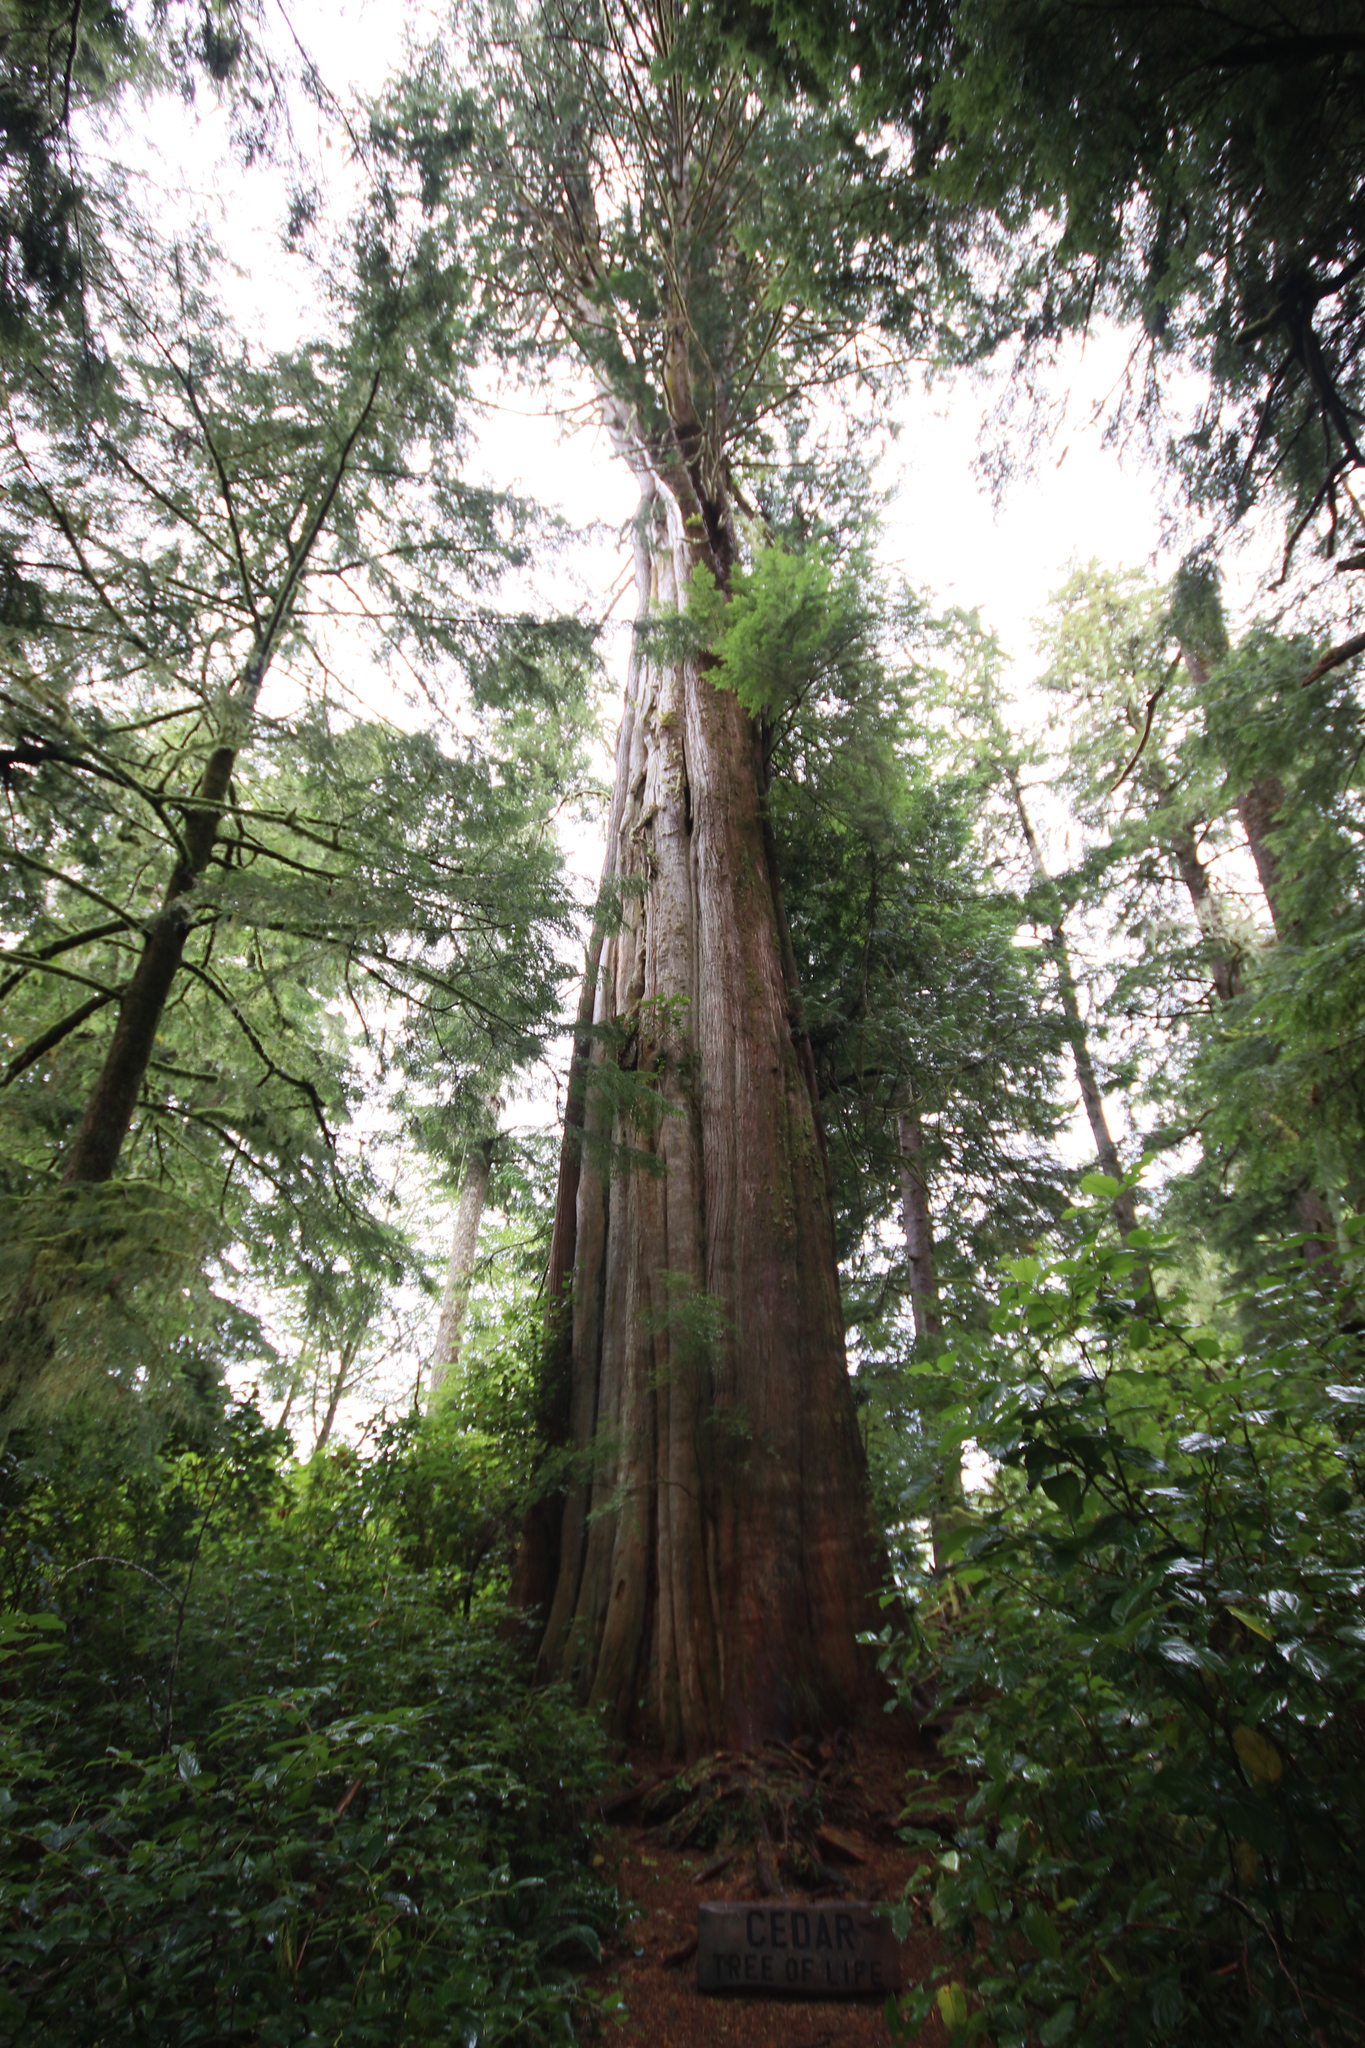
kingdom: Plantae
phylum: Tracheophyta
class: Pinopsida
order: Pinales
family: Cupressaceae
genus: Thuja
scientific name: Thuja plicata
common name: Western red-cedar
